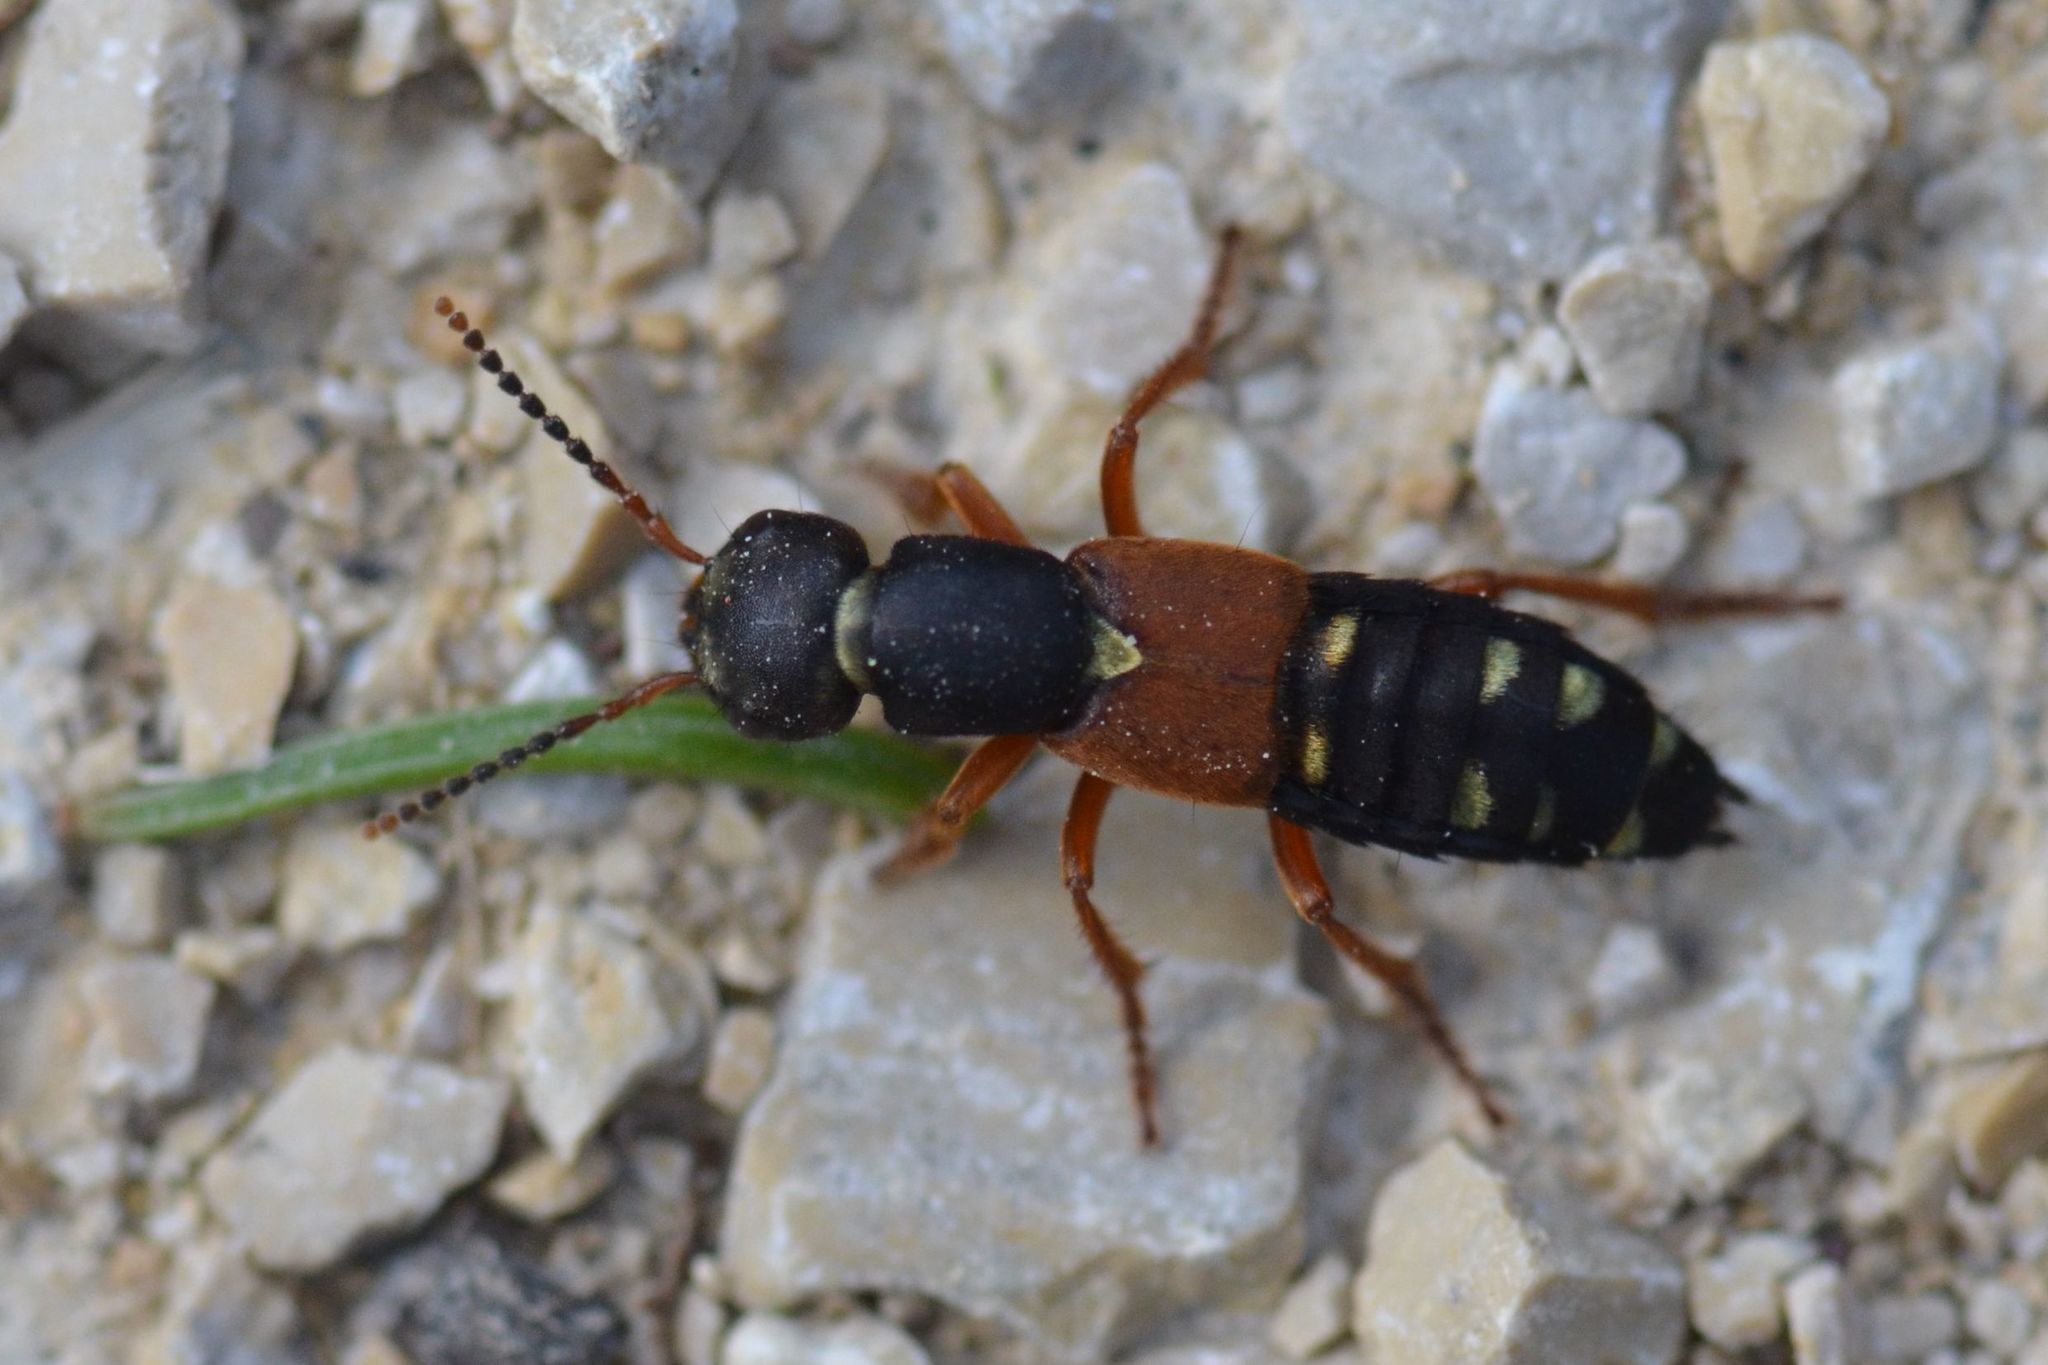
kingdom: Animalia
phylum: Arthropoda
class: Insecta
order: Coleoptera
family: Staphylinidae
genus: Staphylinus
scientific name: Staphylinus erythropterus
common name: Staph beetle
